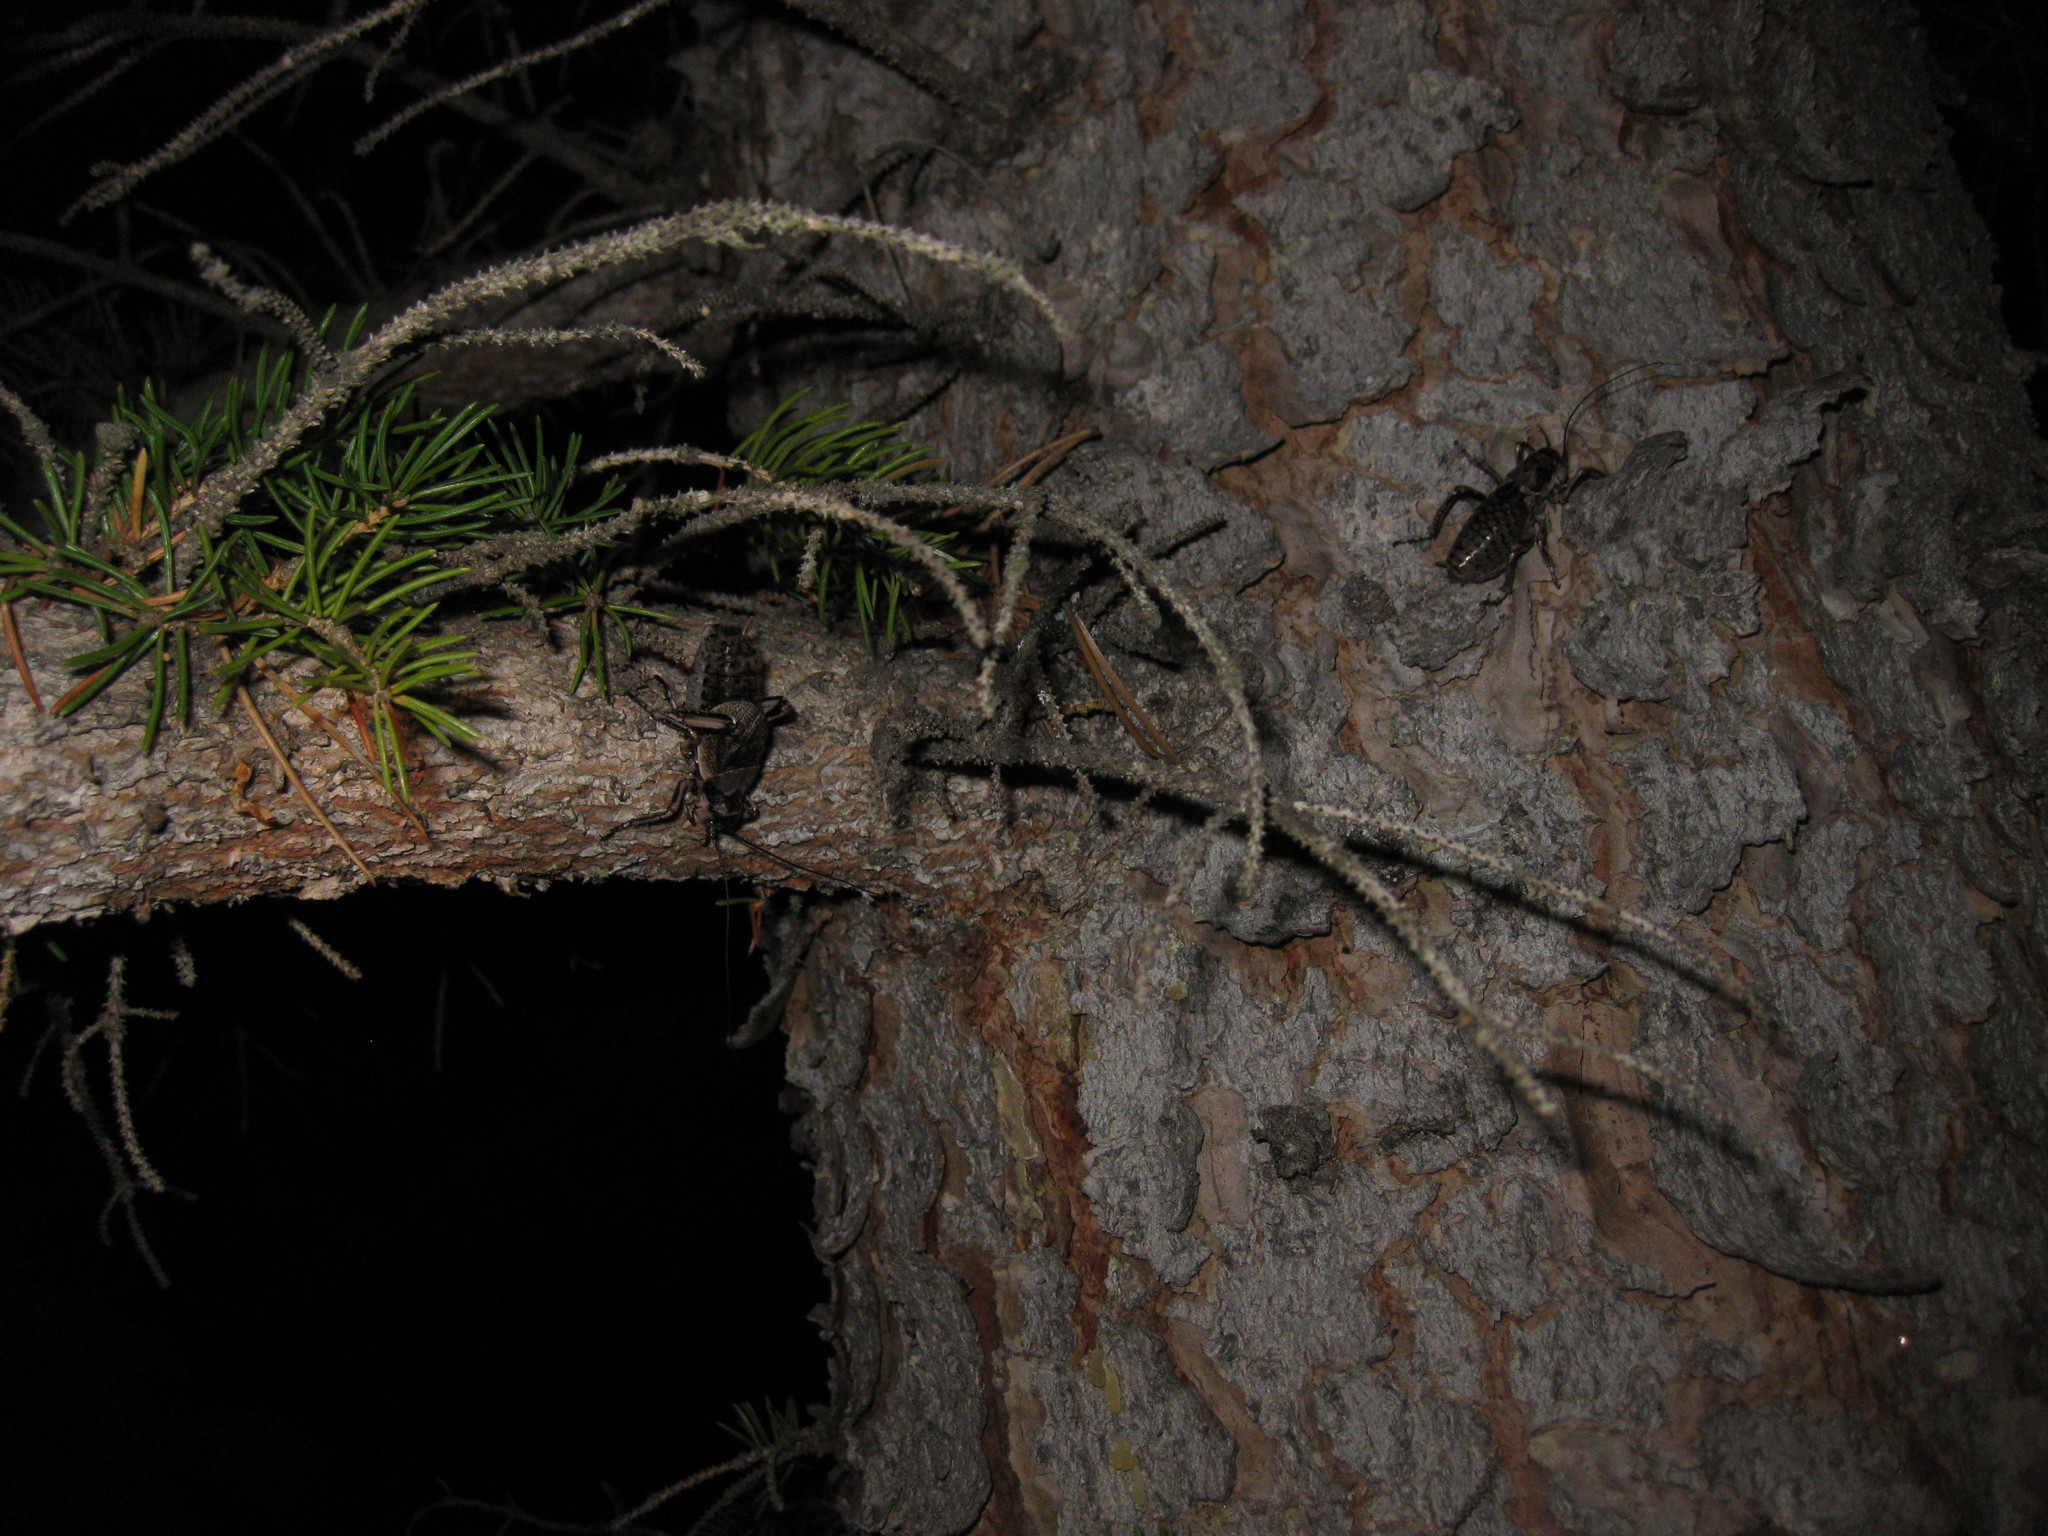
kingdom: Animalia
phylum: Arthropoda
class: Insecta
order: Orthoptera
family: Prophalangopsidae
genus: Cyphoderris
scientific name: Cyphoderris monstrosa
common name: Great grig
